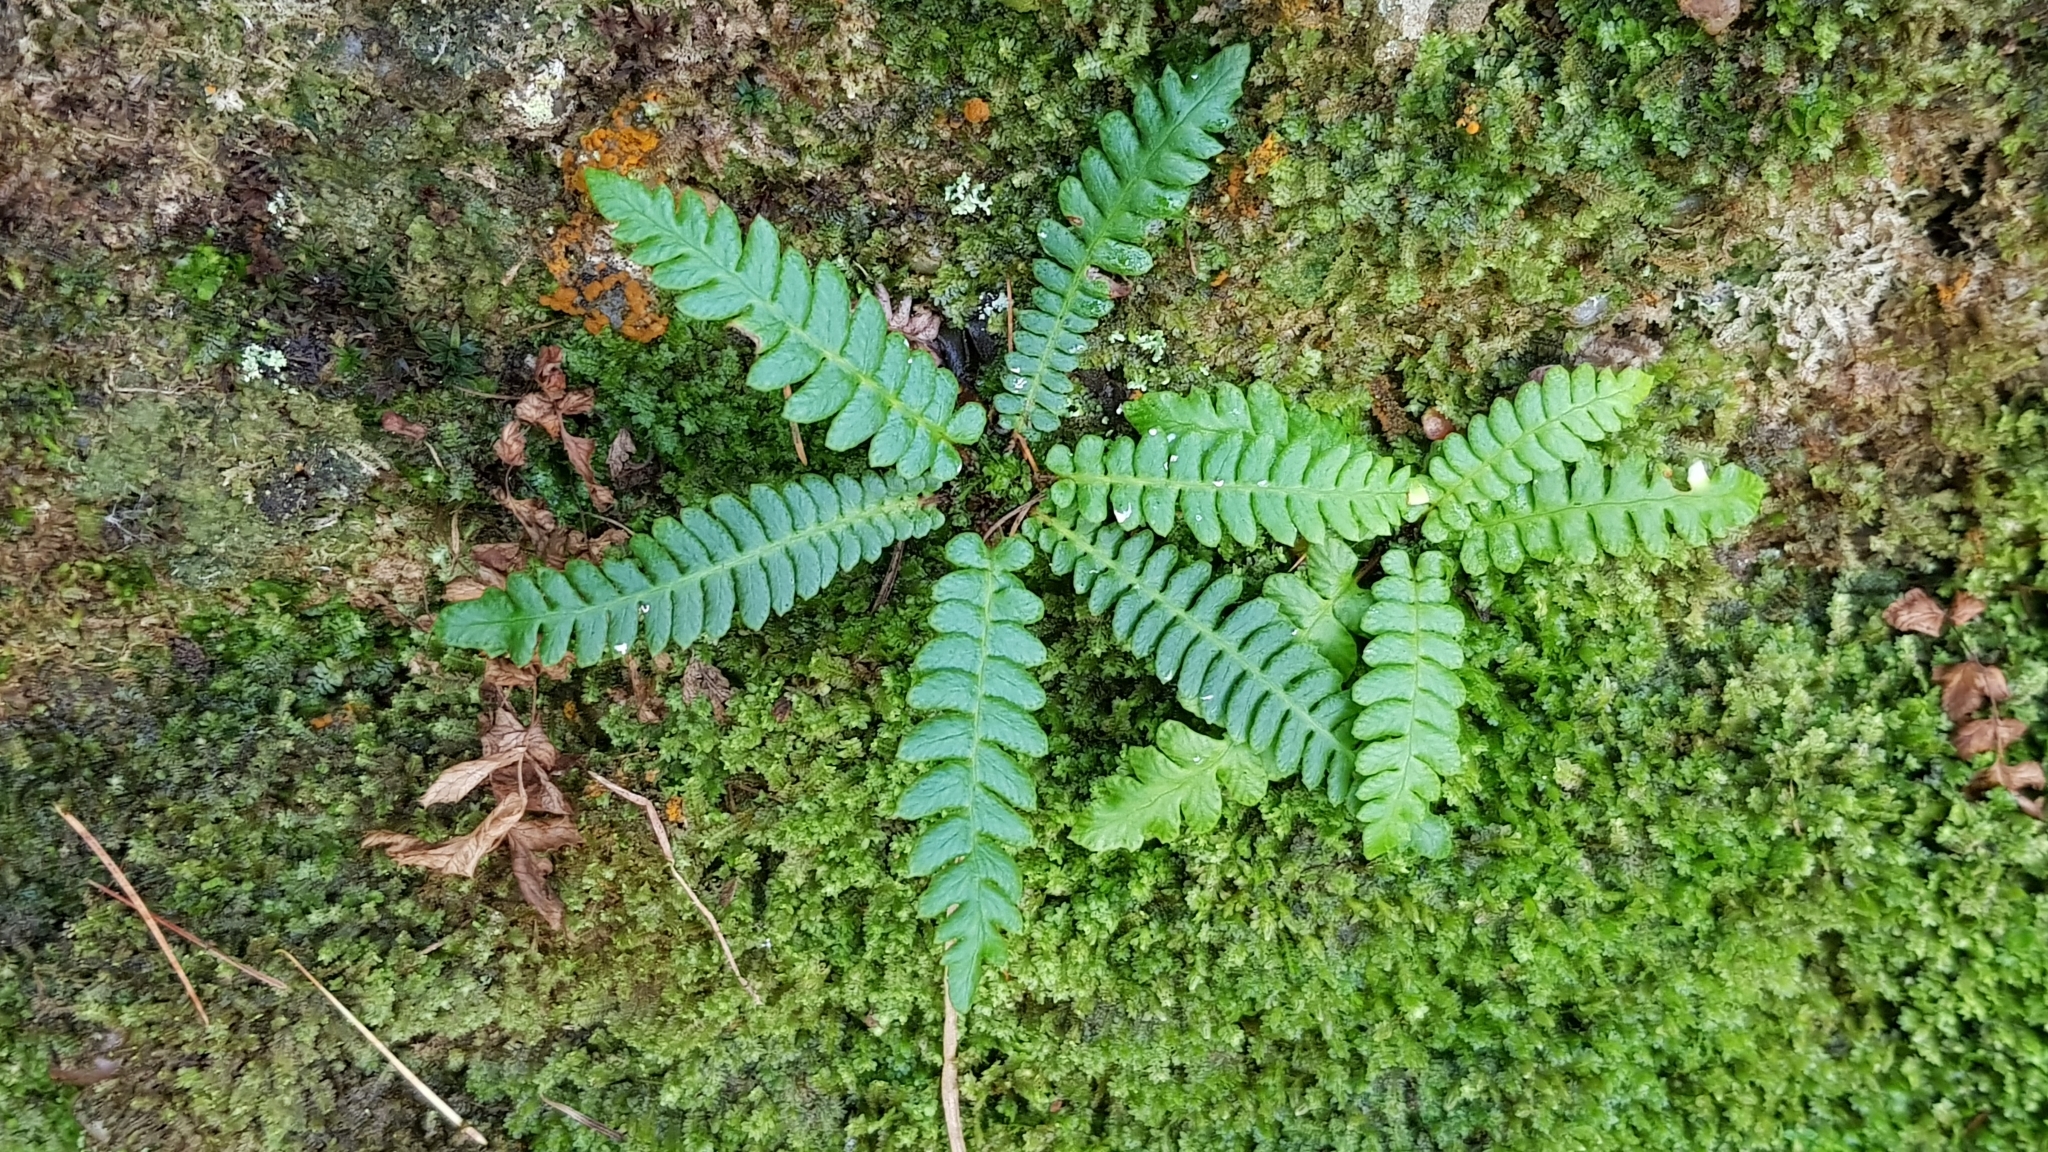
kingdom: Plantae
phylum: Tracheophyta
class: Polypodiopsida
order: Polypodiales
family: Blechnaceae
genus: Struthiopteris
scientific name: Struthiopteris spicant
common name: Deer fern
